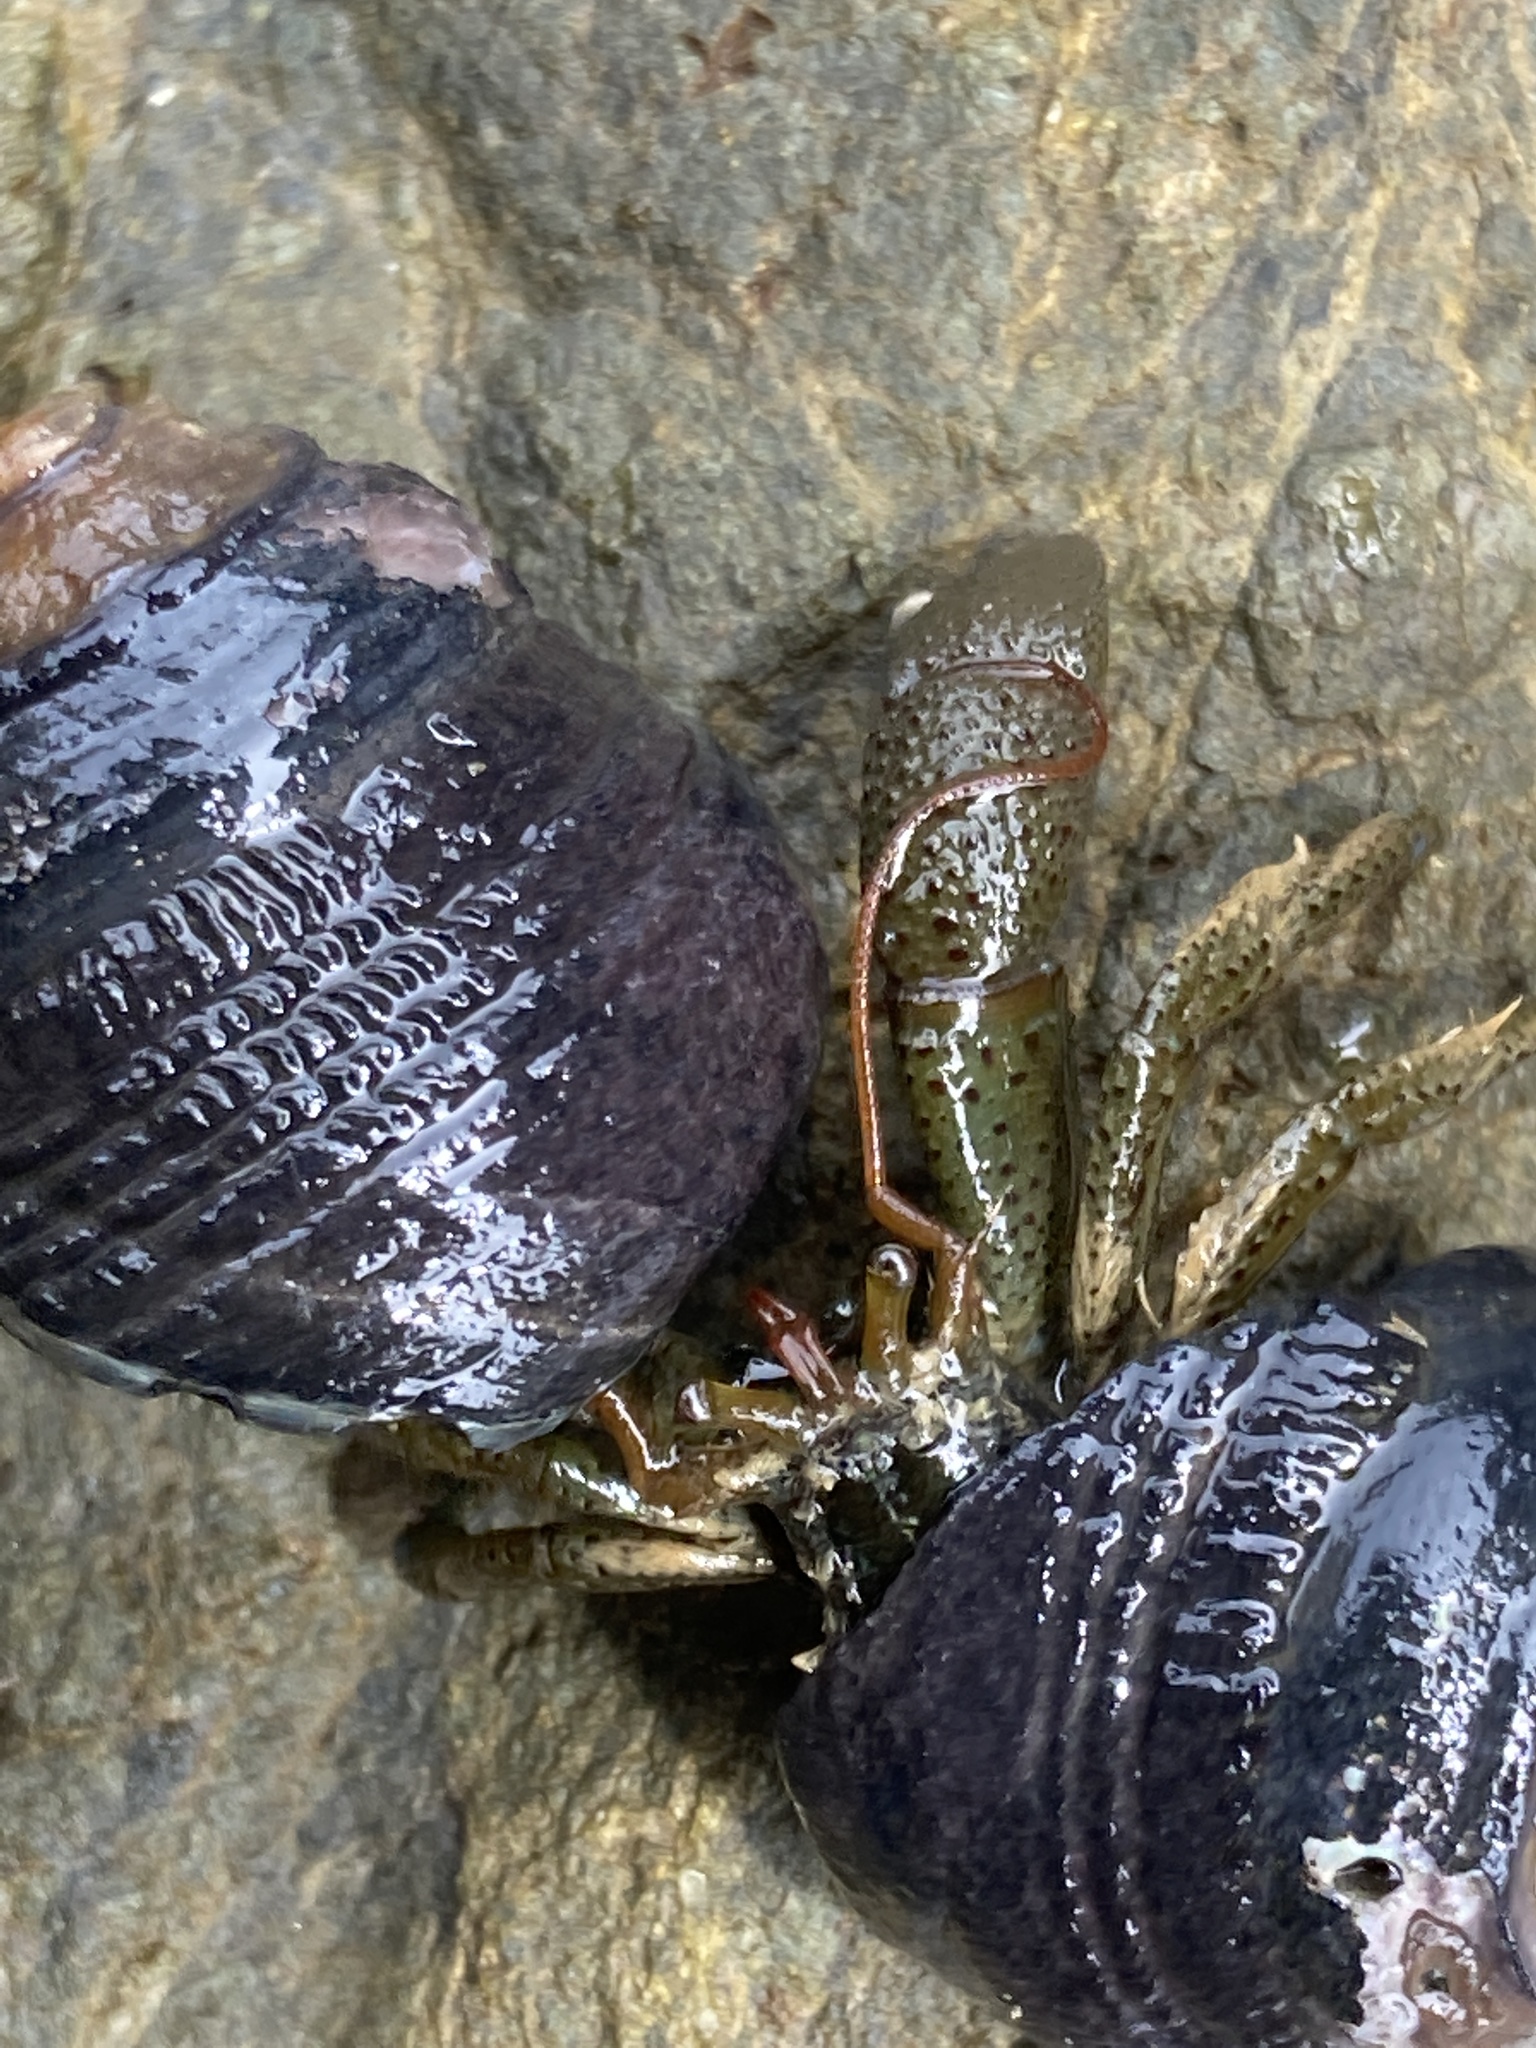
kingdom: Animalia
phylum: Arthropoda
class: Malacostraca
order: Decapoda
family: Paguridae
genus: Pagurus
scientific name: Pagurus samuelis
